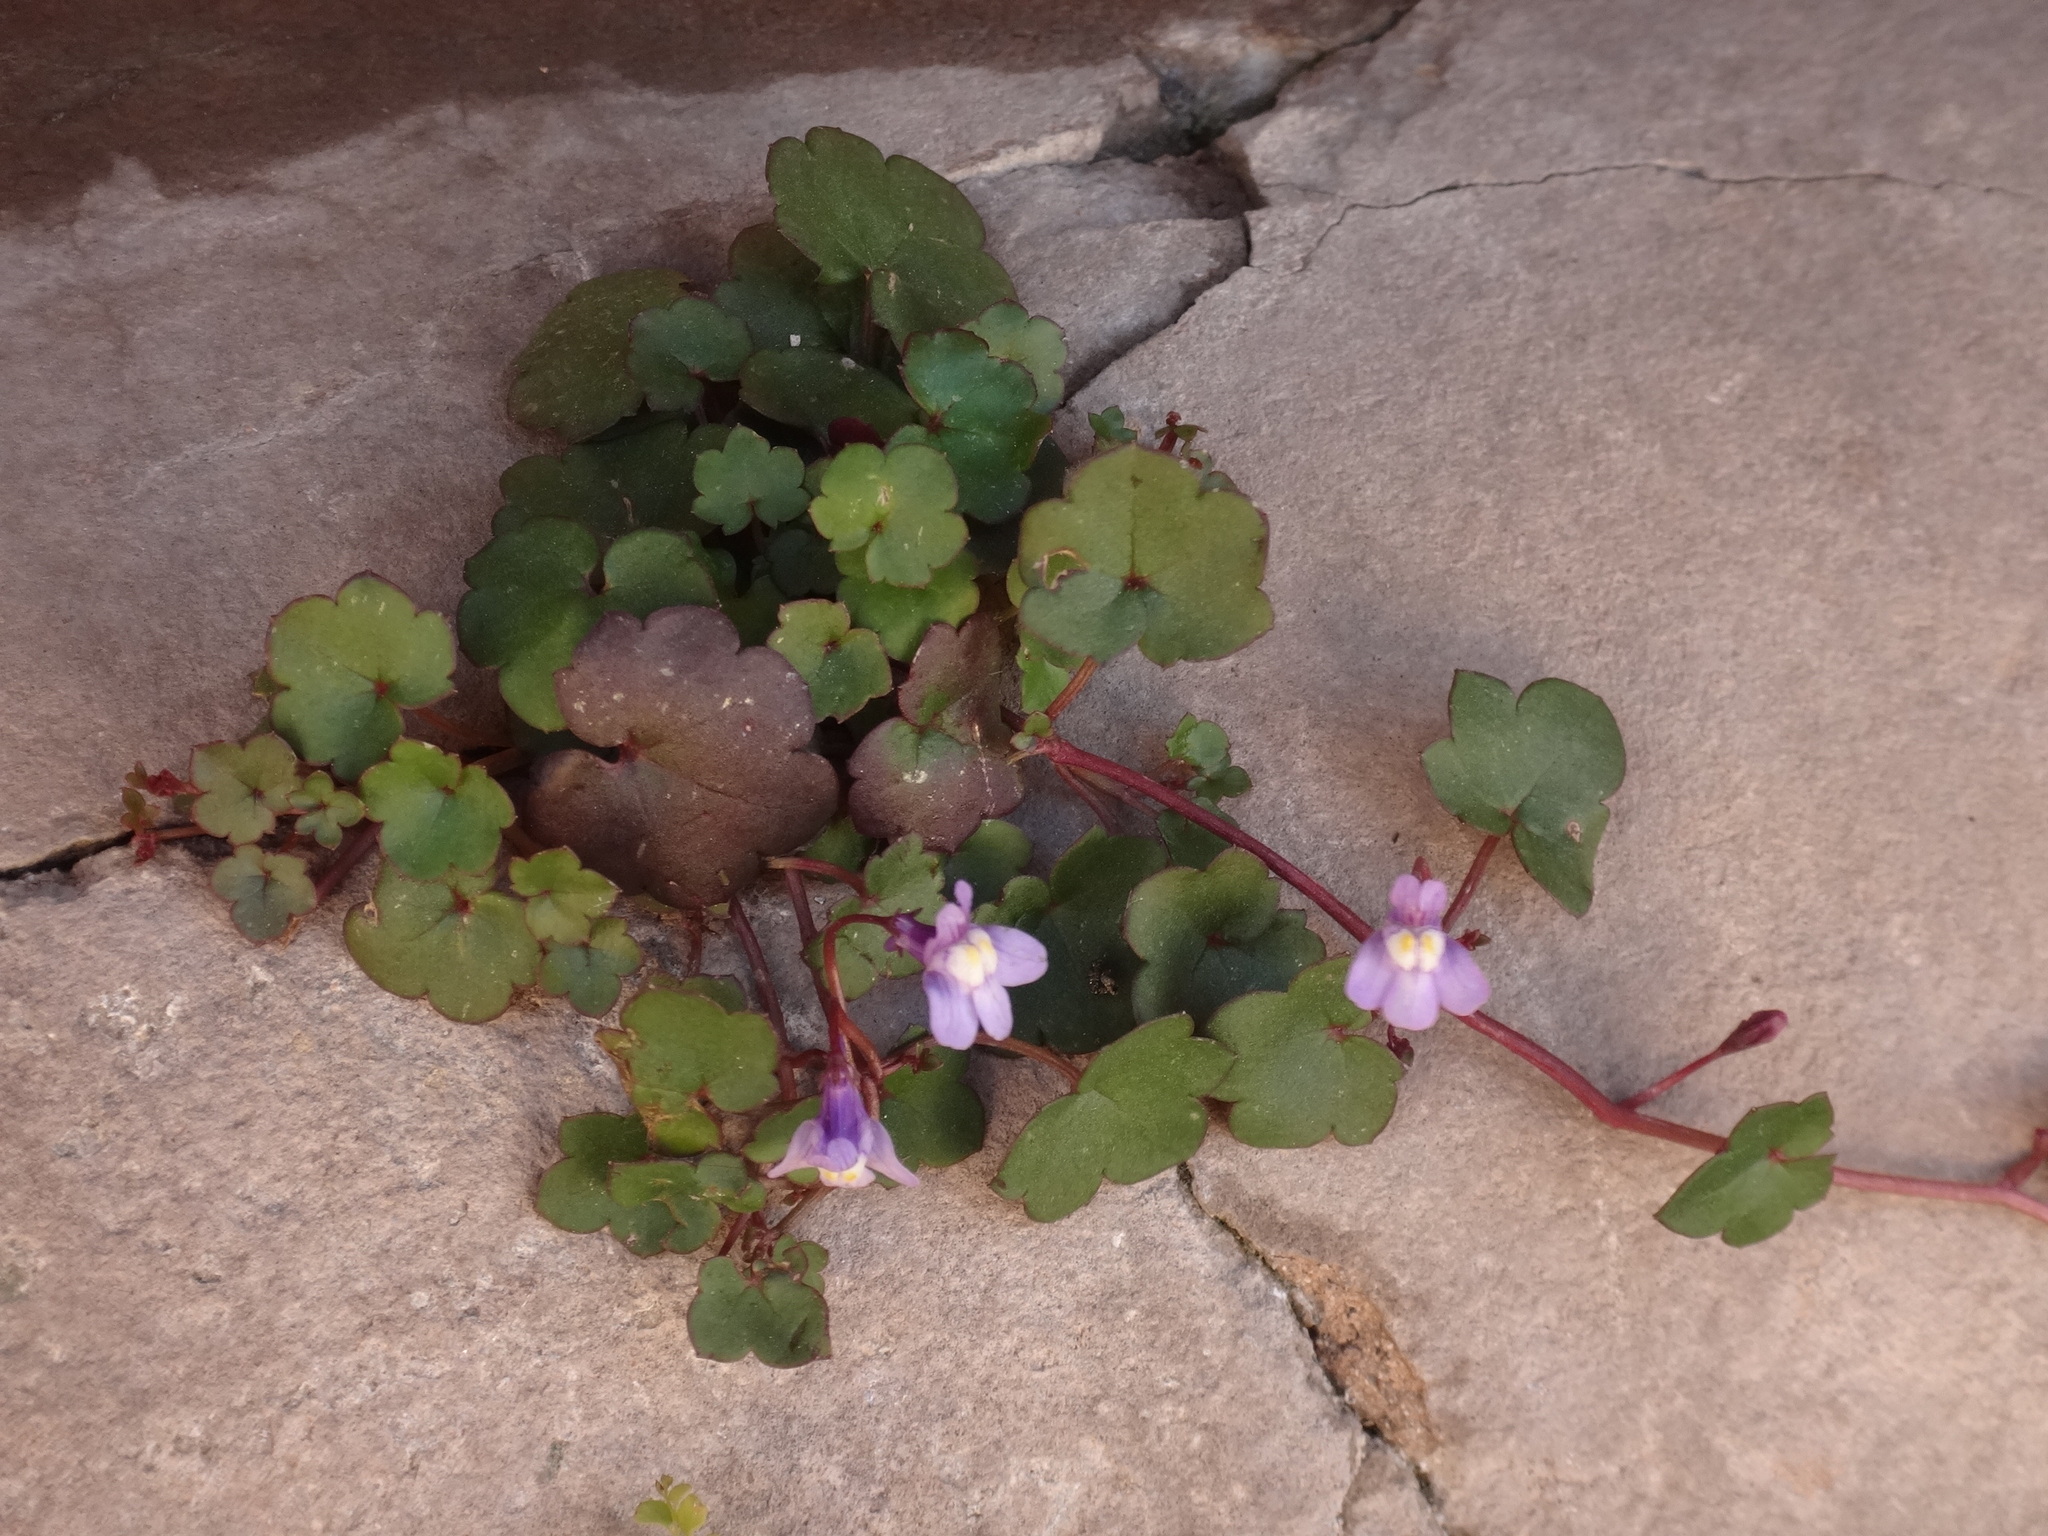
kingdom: Plantae
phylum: Tracheophyta
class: Magnoliopsida
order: Lamiales
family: Plantaginaceae
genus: Cymbalaria
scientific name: Cymbalaria muralis
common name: Ivy-leaved toadflax
